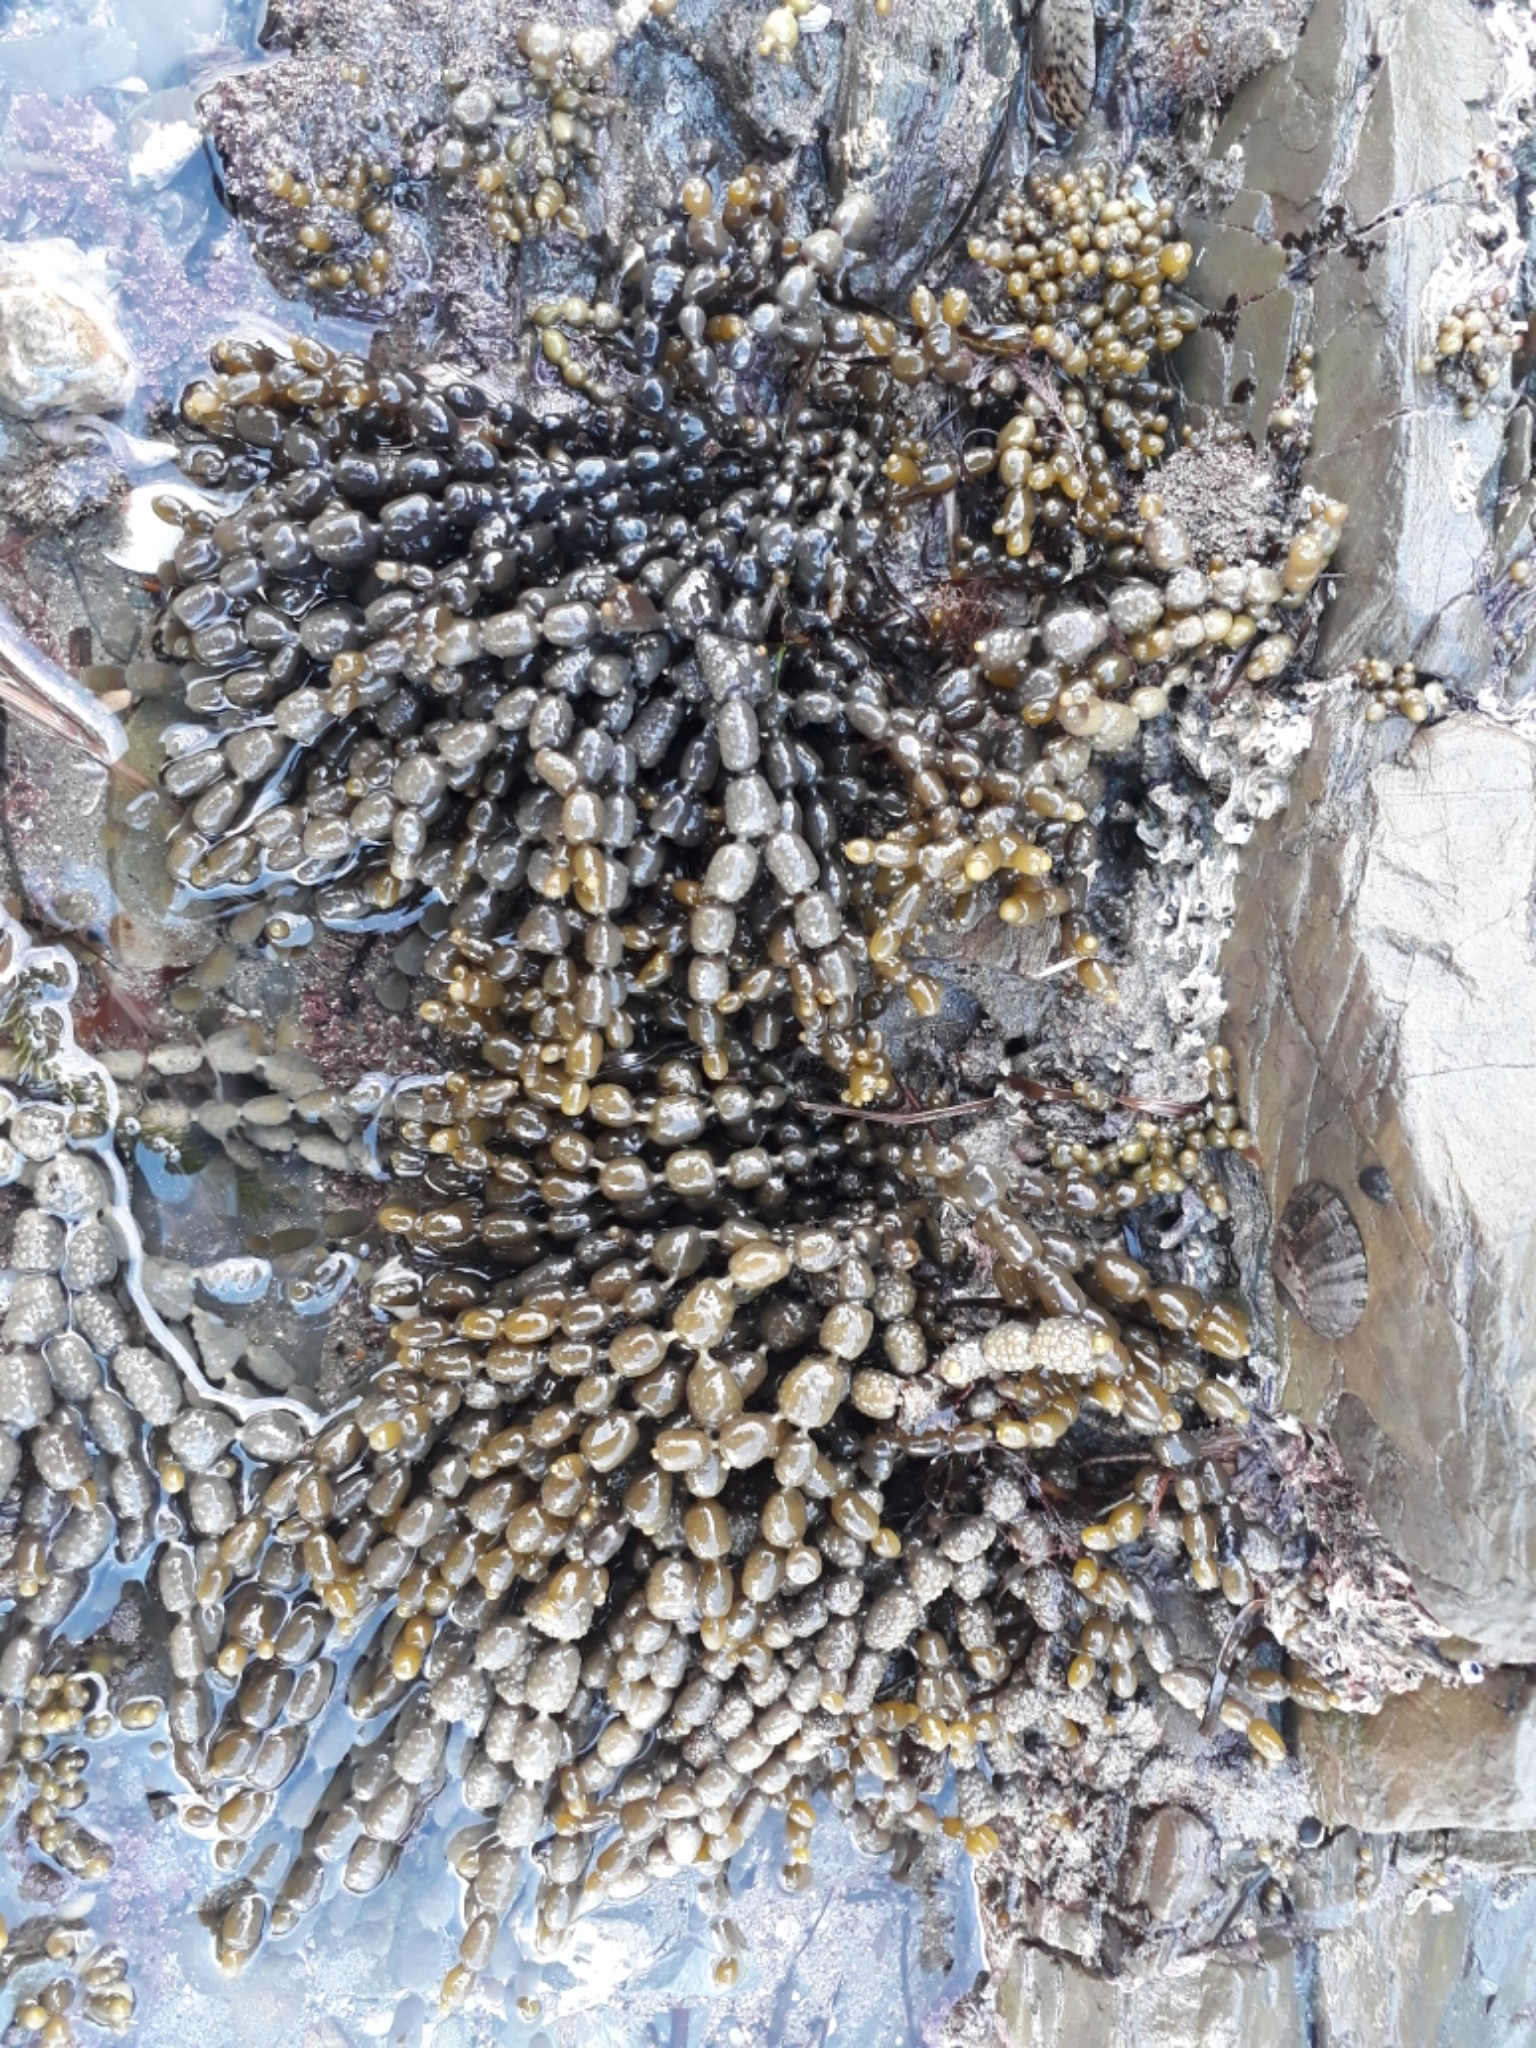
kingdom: Chromista
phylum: Ochrophyta
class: Phaeophyceae
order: Fucales
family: Hormosiraceae
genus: Hormosira
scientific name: Hormosira banksii
